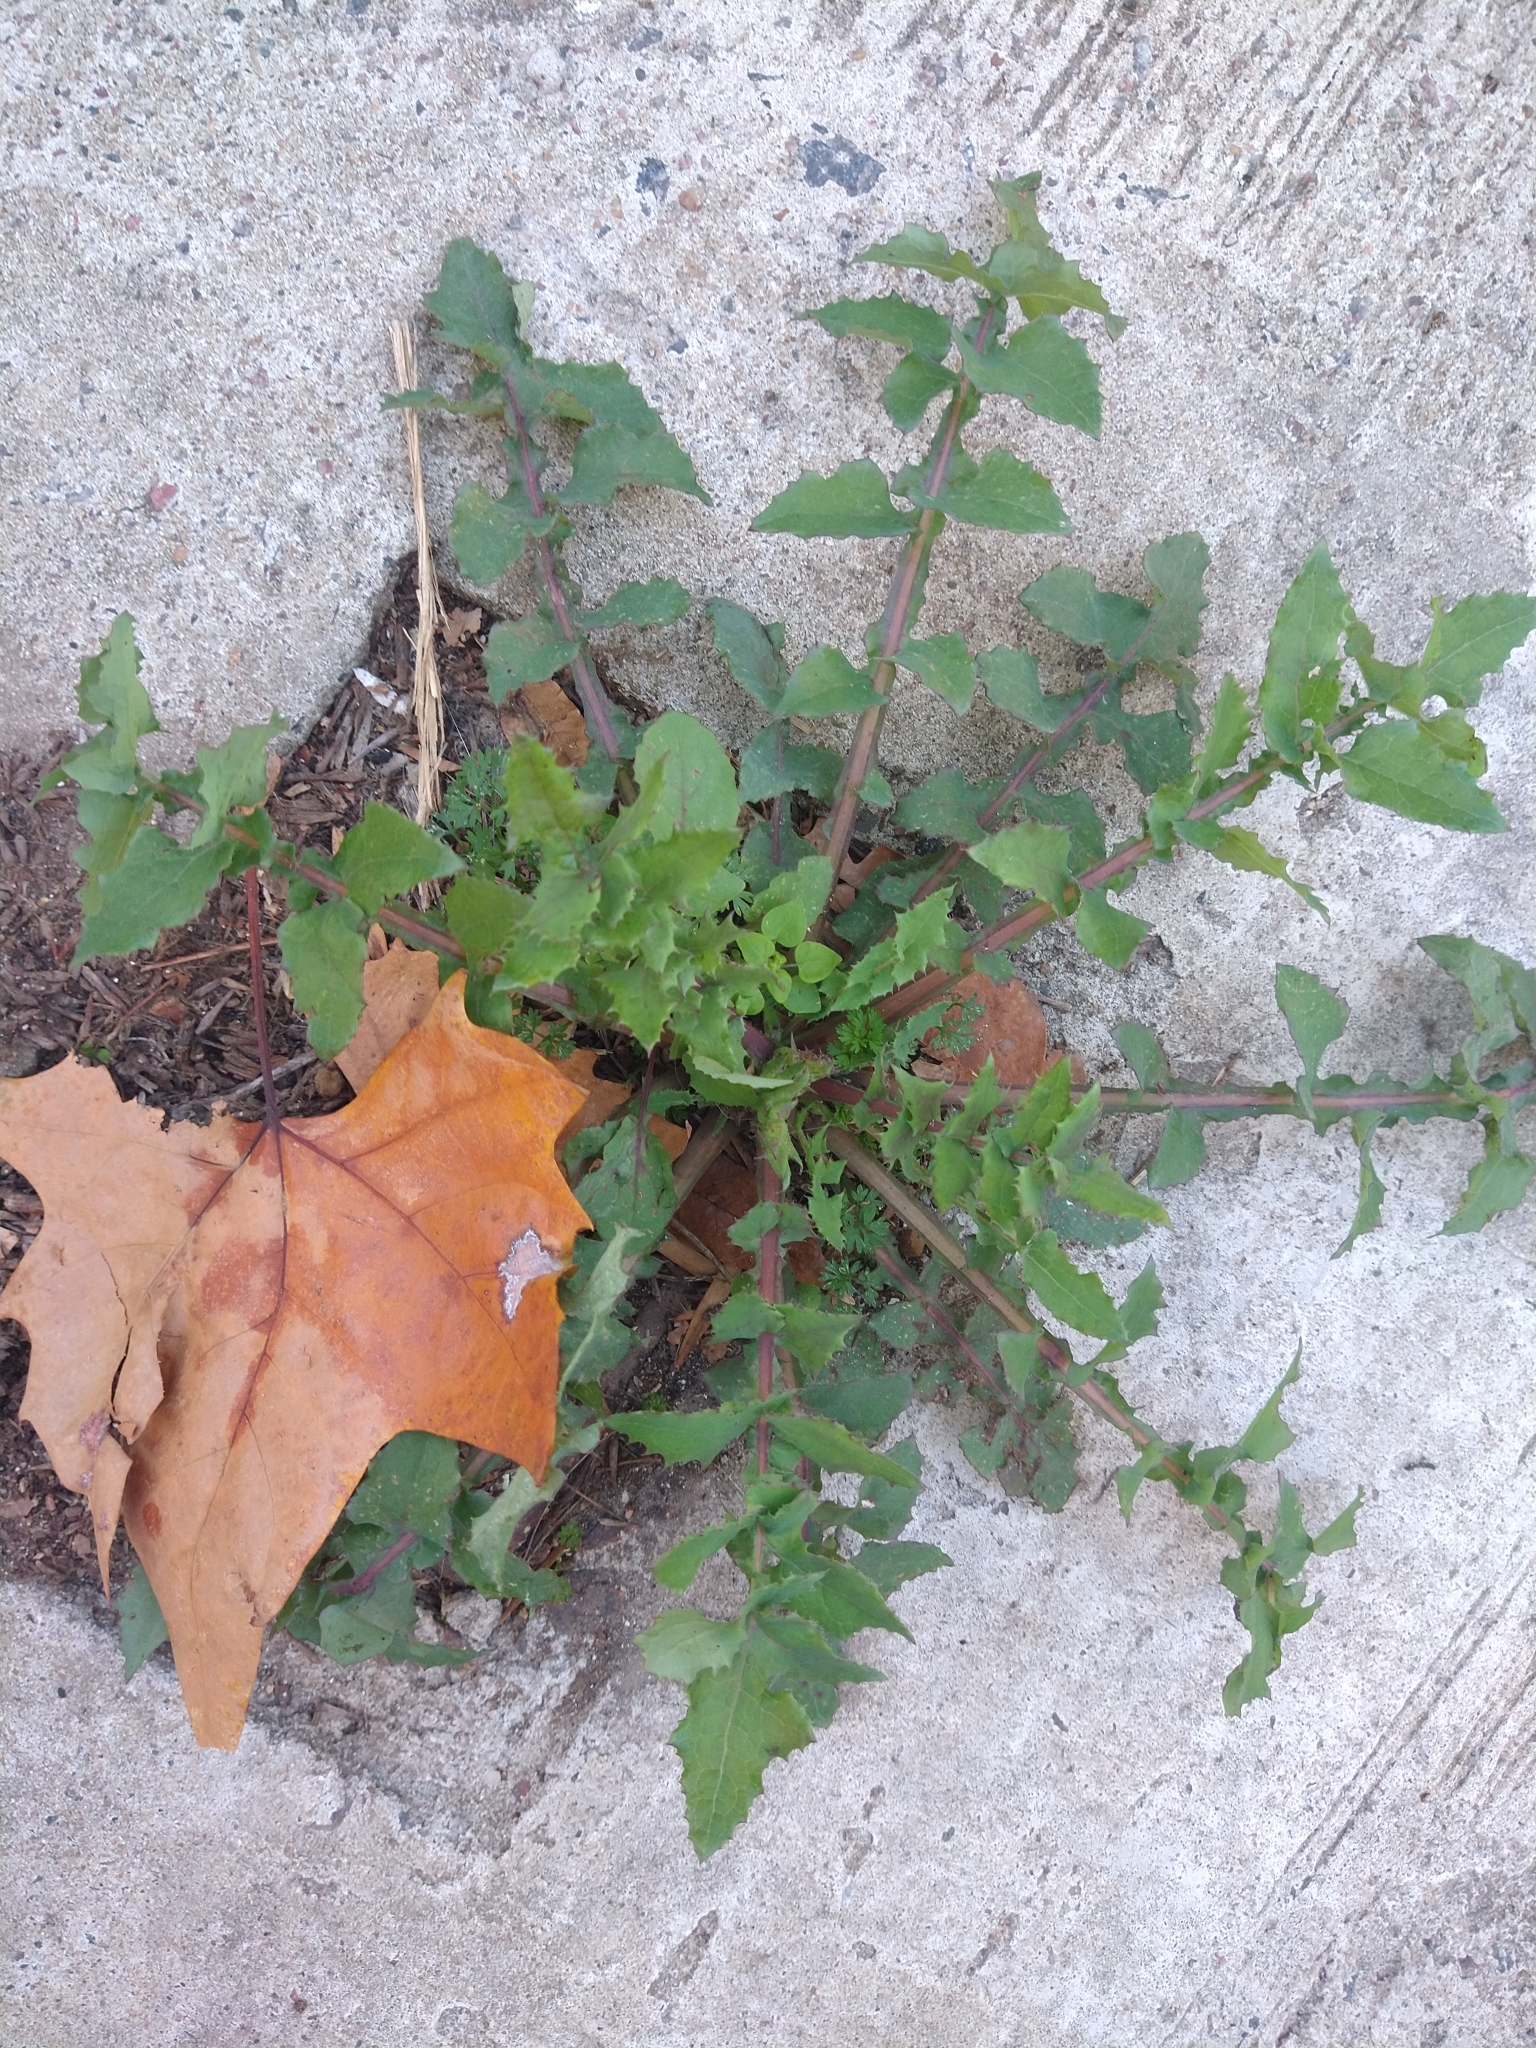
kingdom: Plantae
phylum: Tracheophyta
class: Magnoliopsida
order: Asterales
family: Asteraceae
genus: Sonchus
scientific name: Sonchus oleraceus
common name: Common sowthistle
